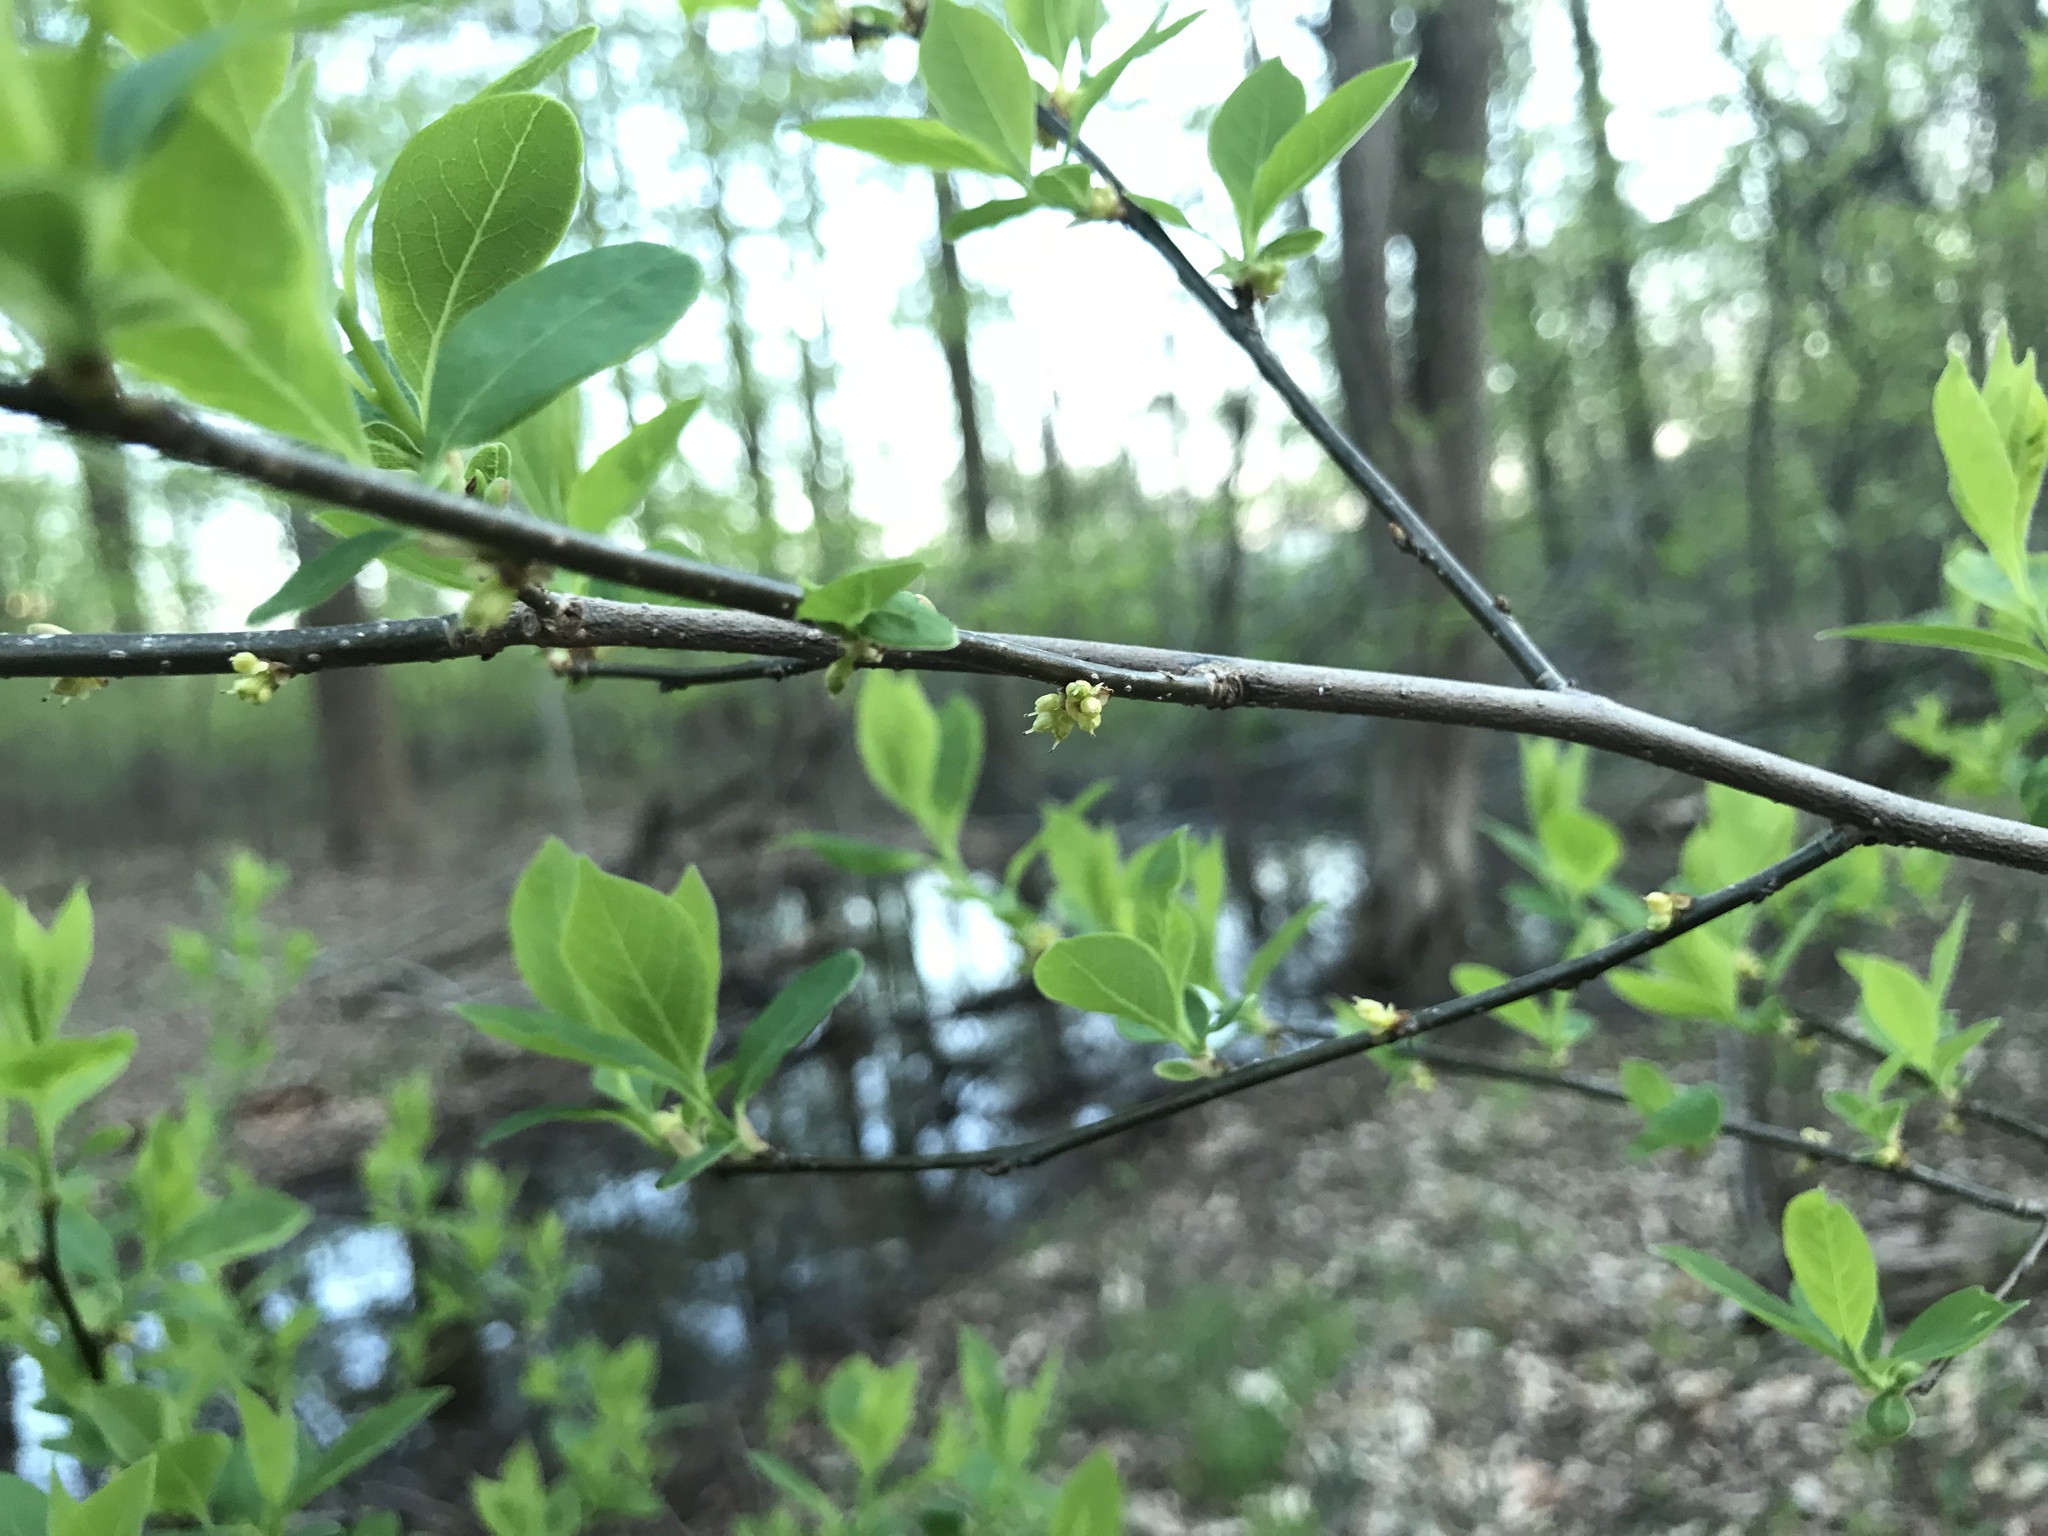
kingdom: Plantae
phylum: Tracheophyta
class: Magnoliopsida
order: Laurales
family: Lauraceae
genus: Lindera
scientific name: Lindera benzoin
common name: Spicebush
